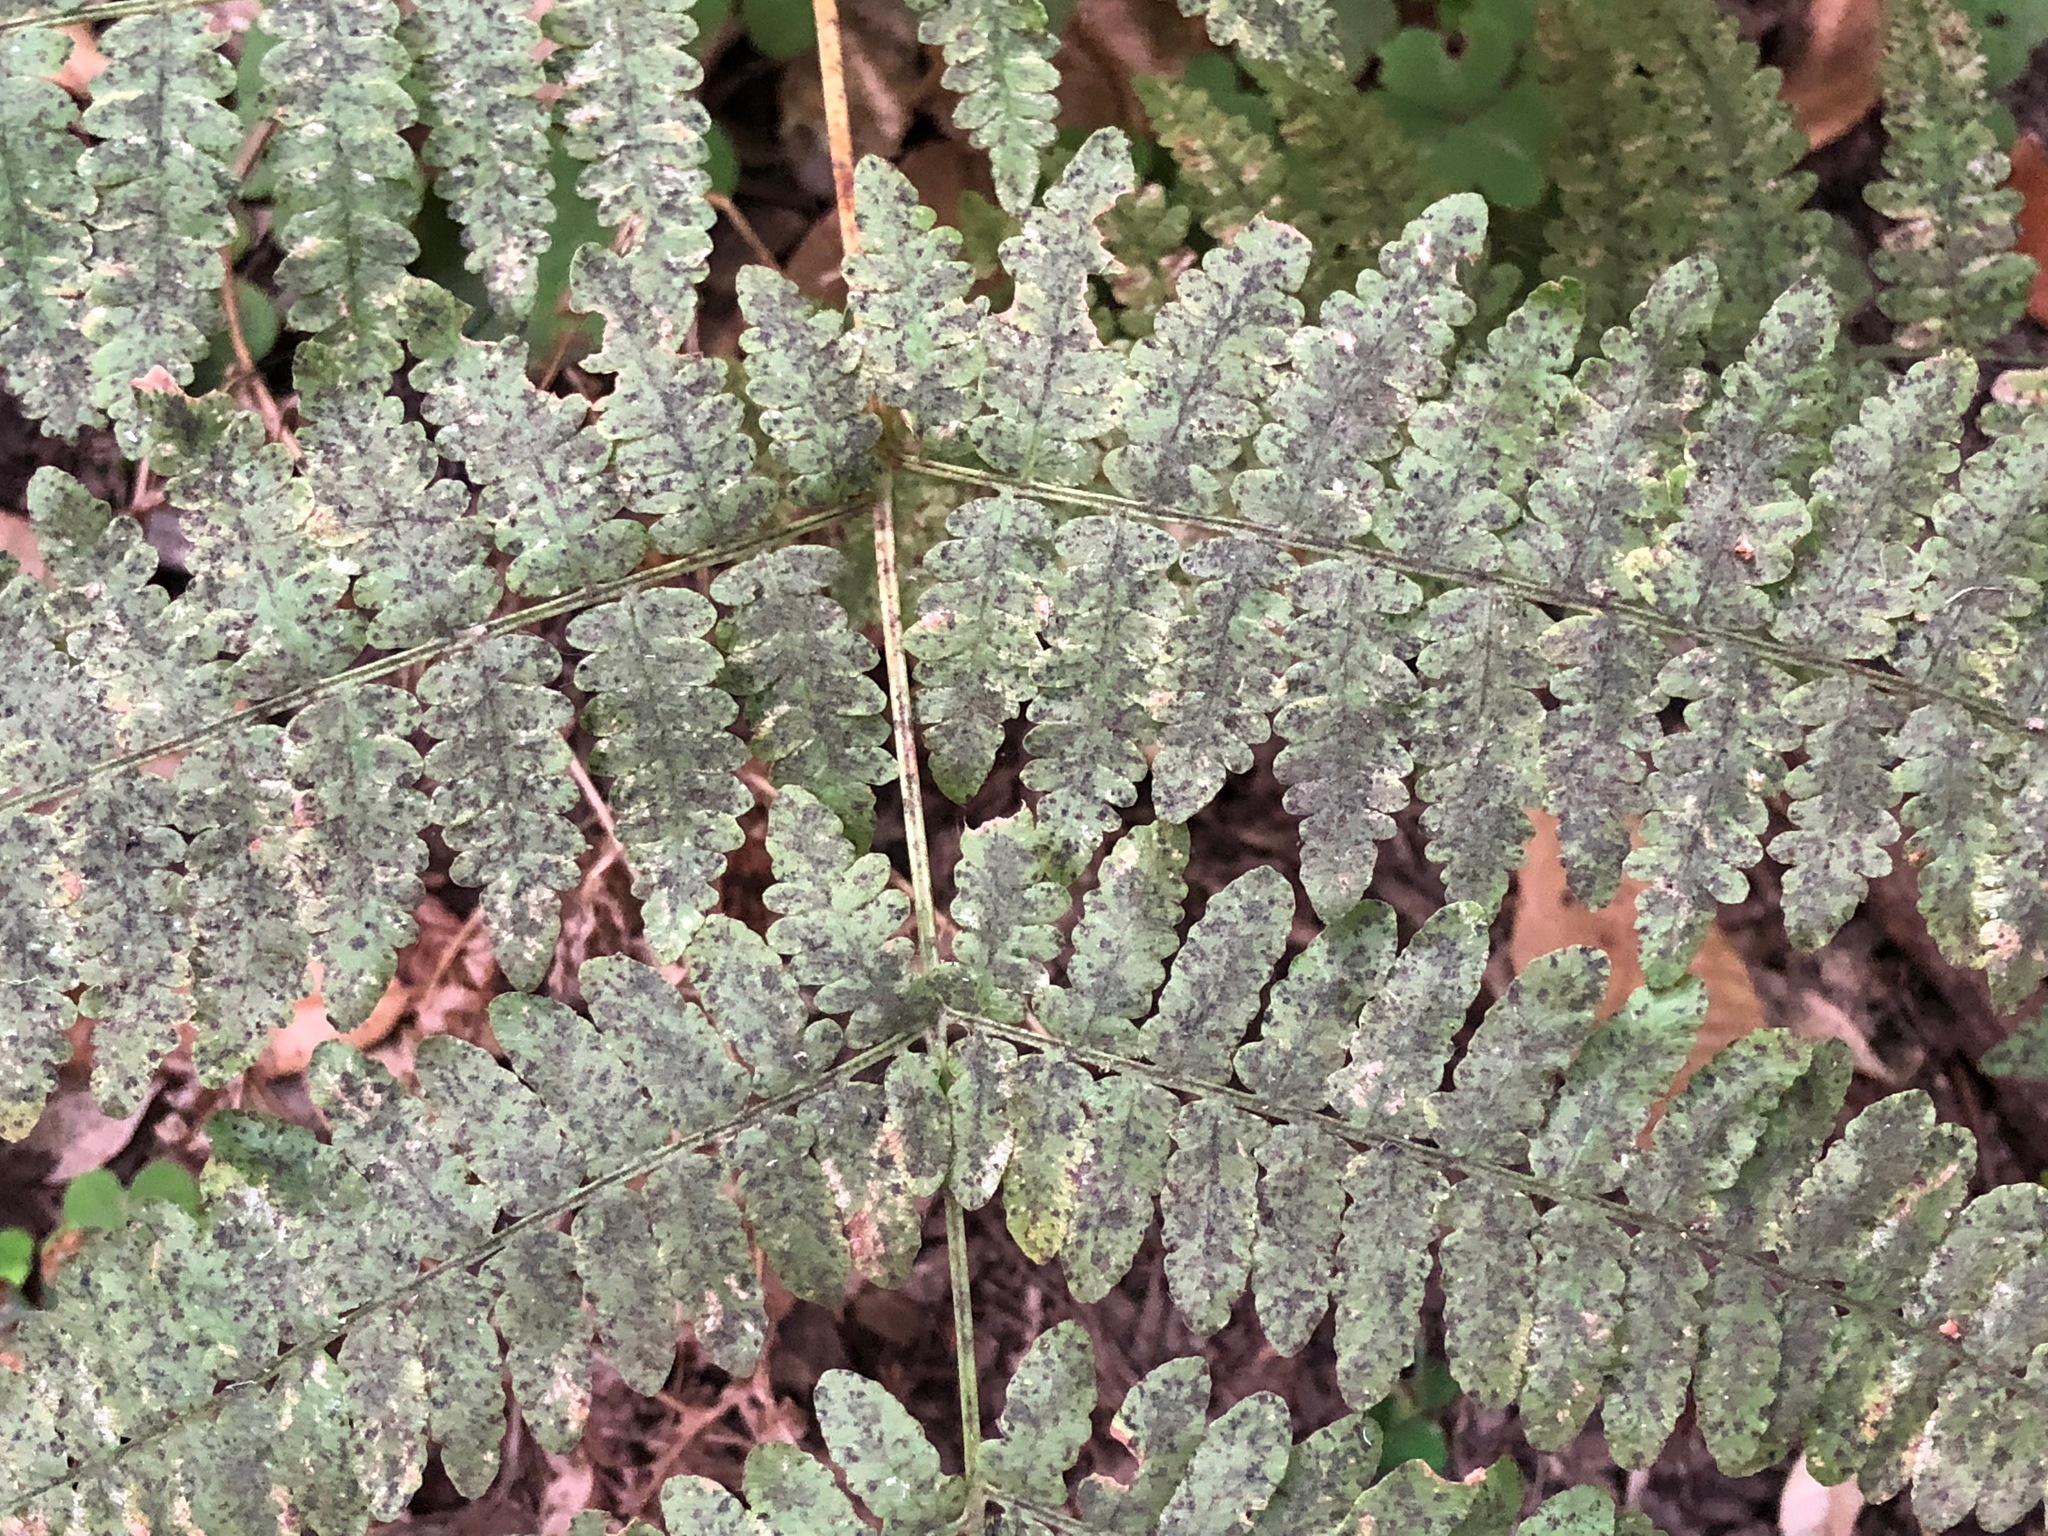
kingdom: Plantae
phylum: Tracheophyta
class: Polypodiopsida
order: Polypodiales
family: Dennstaedtiaceae
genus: Pteridium
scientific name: Pteridium aquilinum
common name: Bracken
